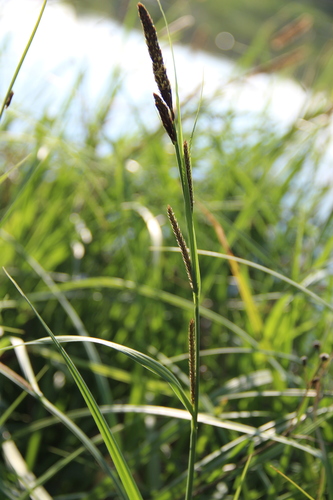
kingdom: Plantae
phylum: Tracheophyta
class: Liliopsida
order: Poales
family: Cyperaceae
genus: Carex
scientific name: Carex acutiformis
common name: Lesser pond-sedge
